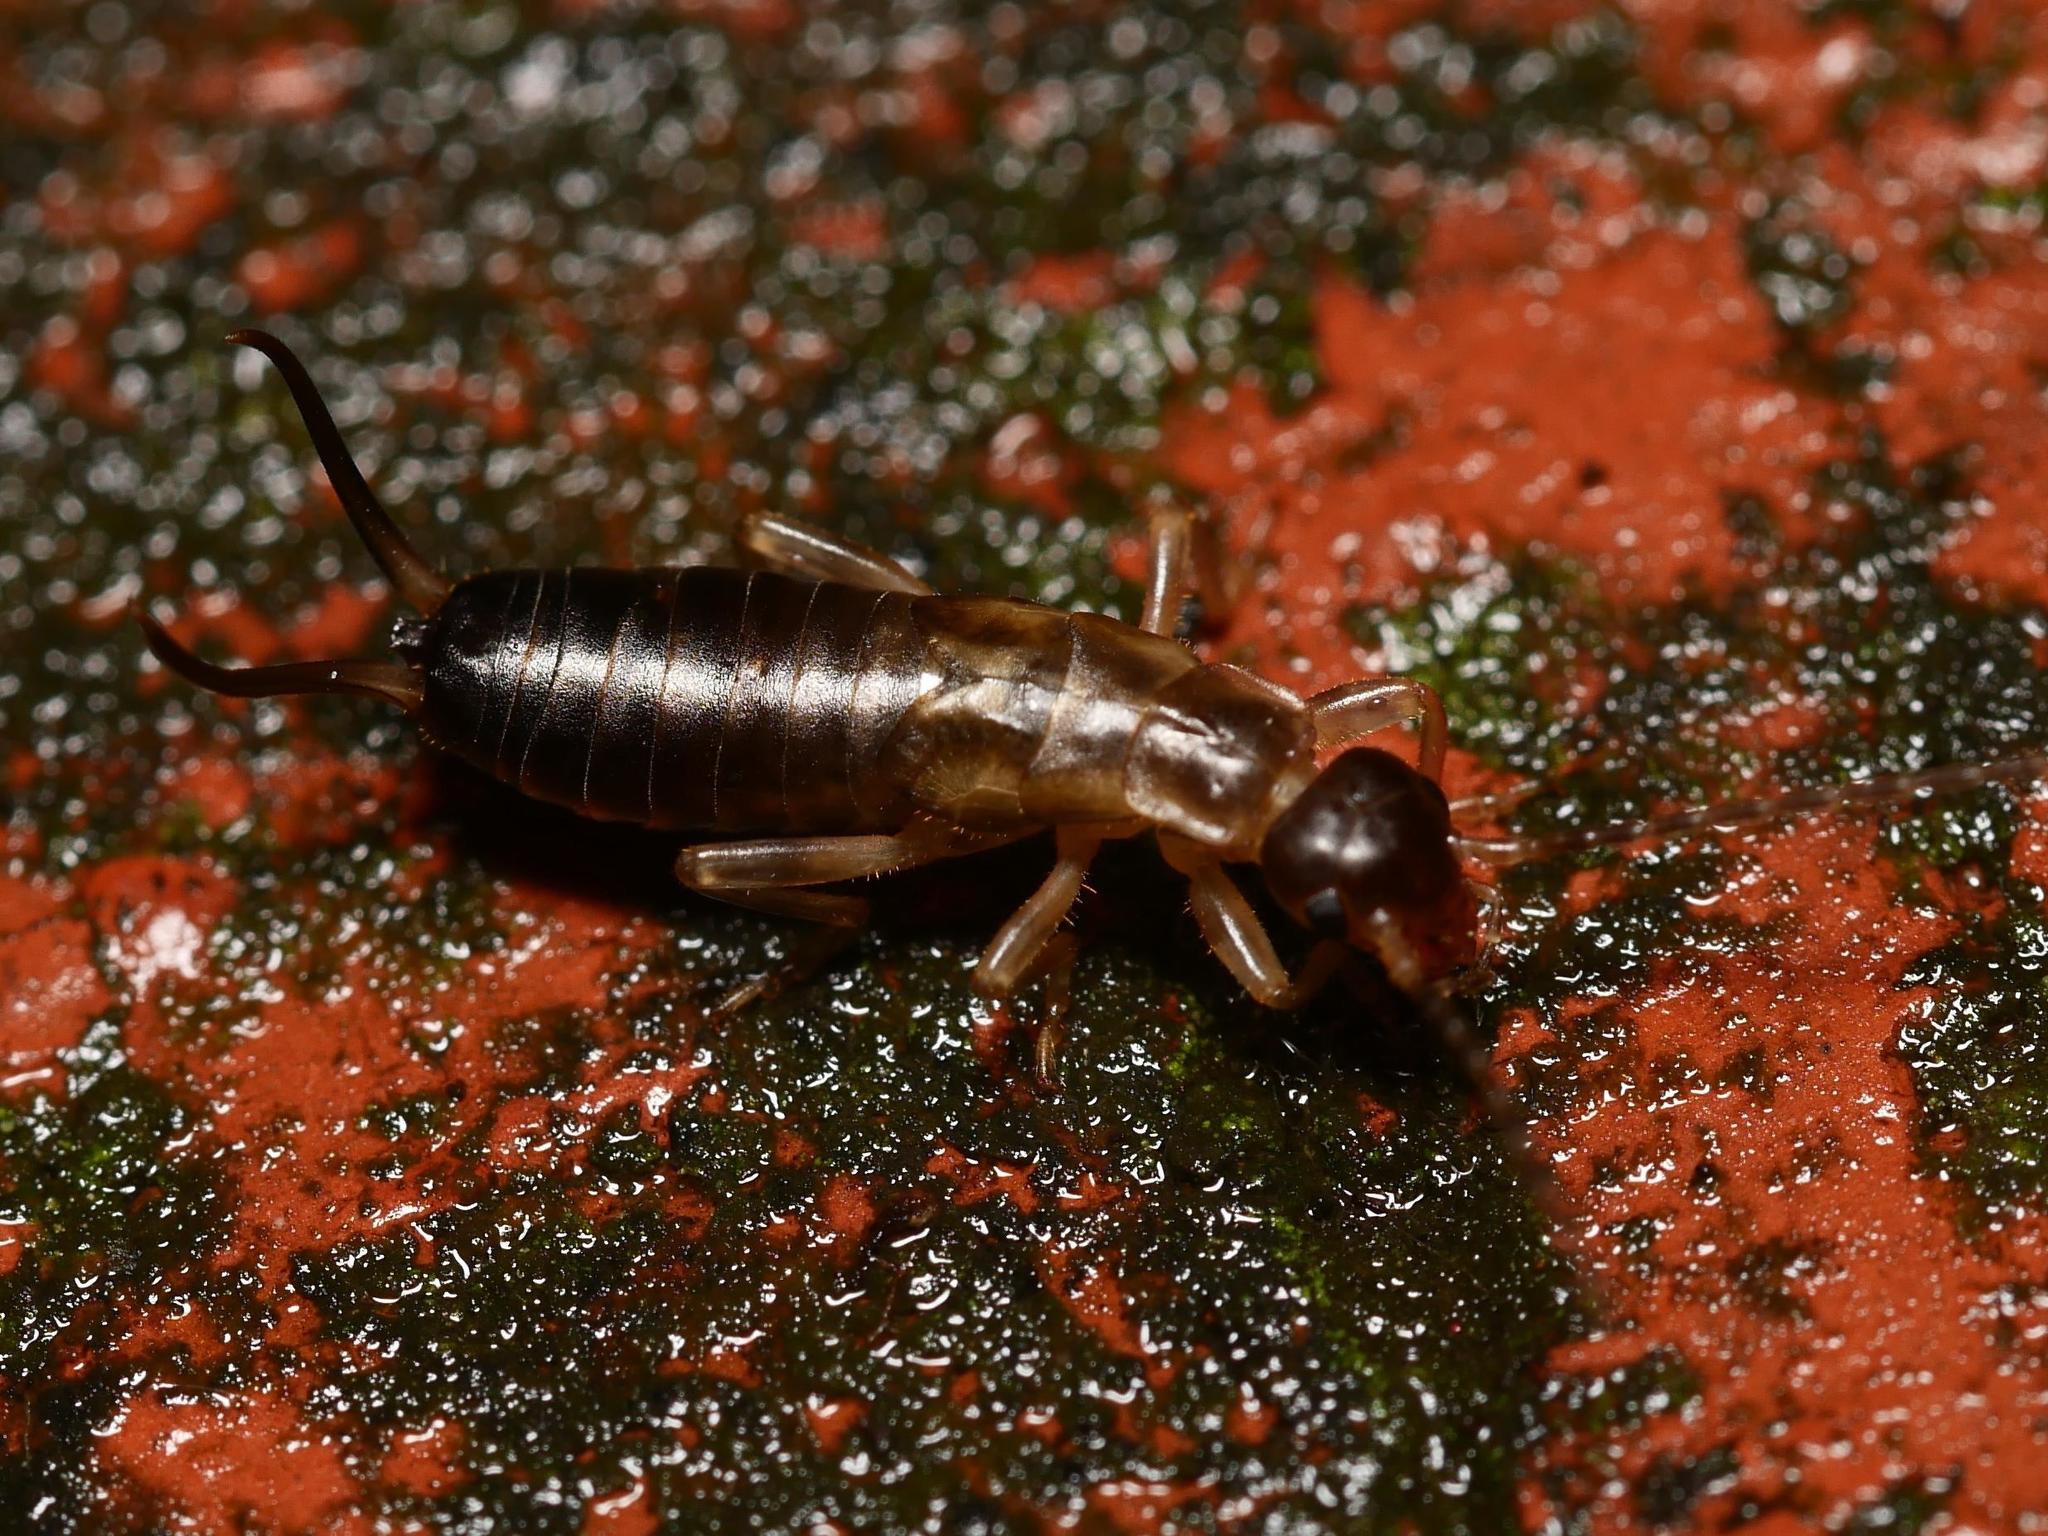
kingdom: Animalia
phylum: Arthropoda
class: Insecta
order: Dermaptera
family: Forficulidae
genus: Forficula
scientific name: Forficula
